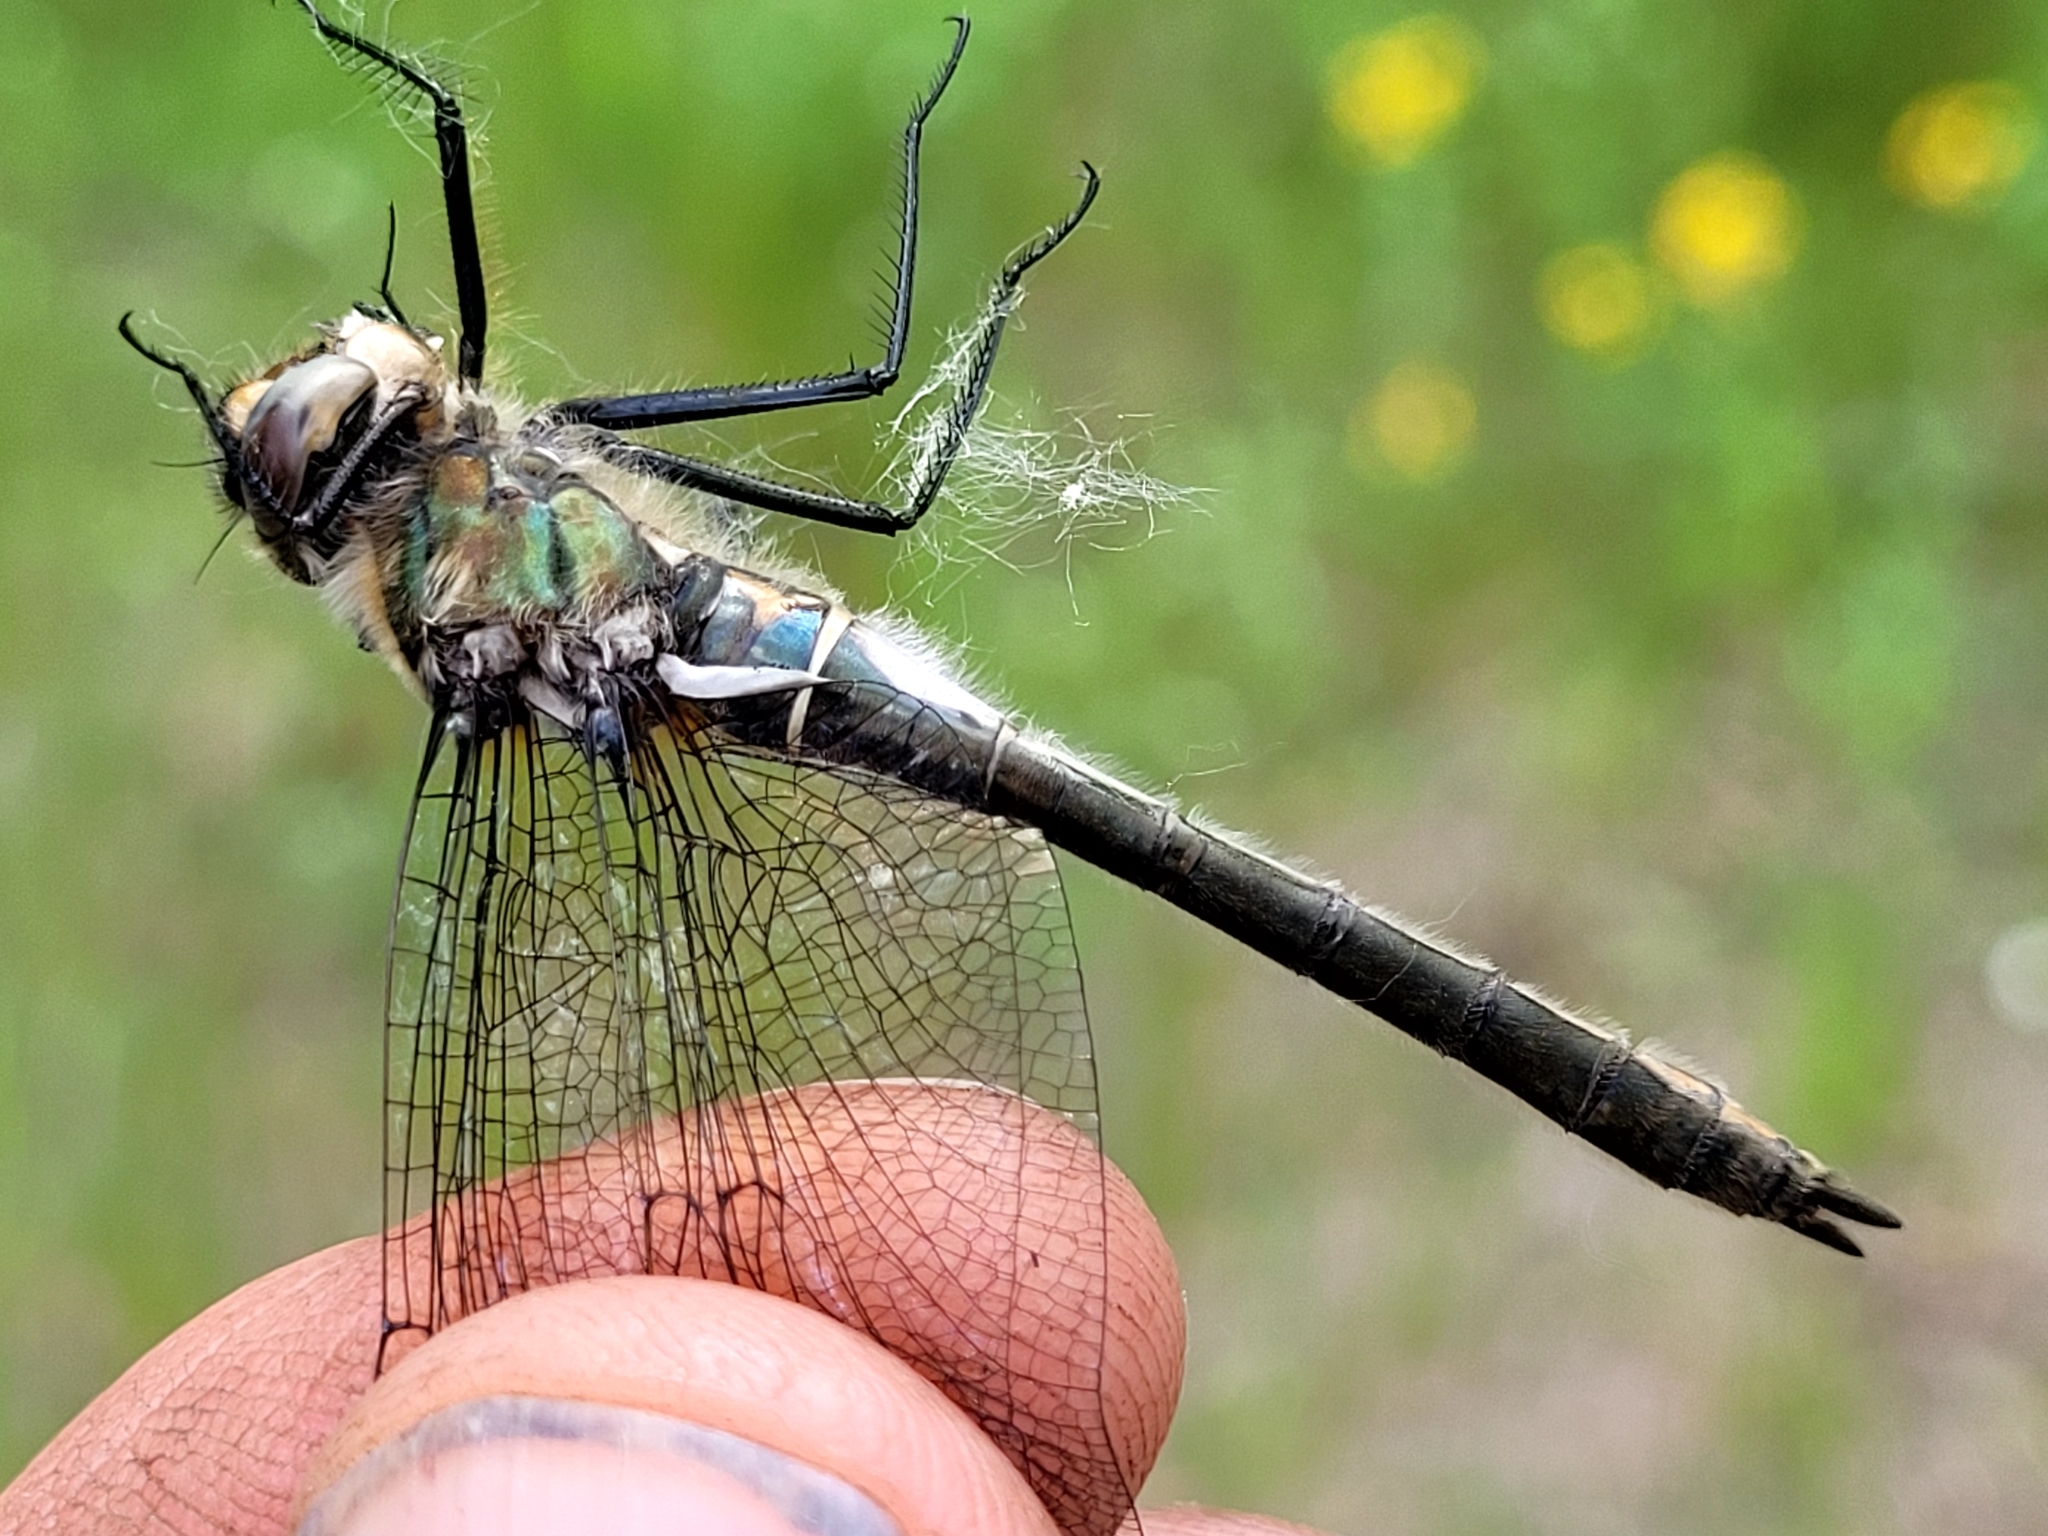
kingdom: Animalia
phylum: Arthropoda
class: Insecta
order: Odonata
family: Corduliidae
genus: Cordulia
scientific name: Cordulia shurtleffii
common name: American emerald
